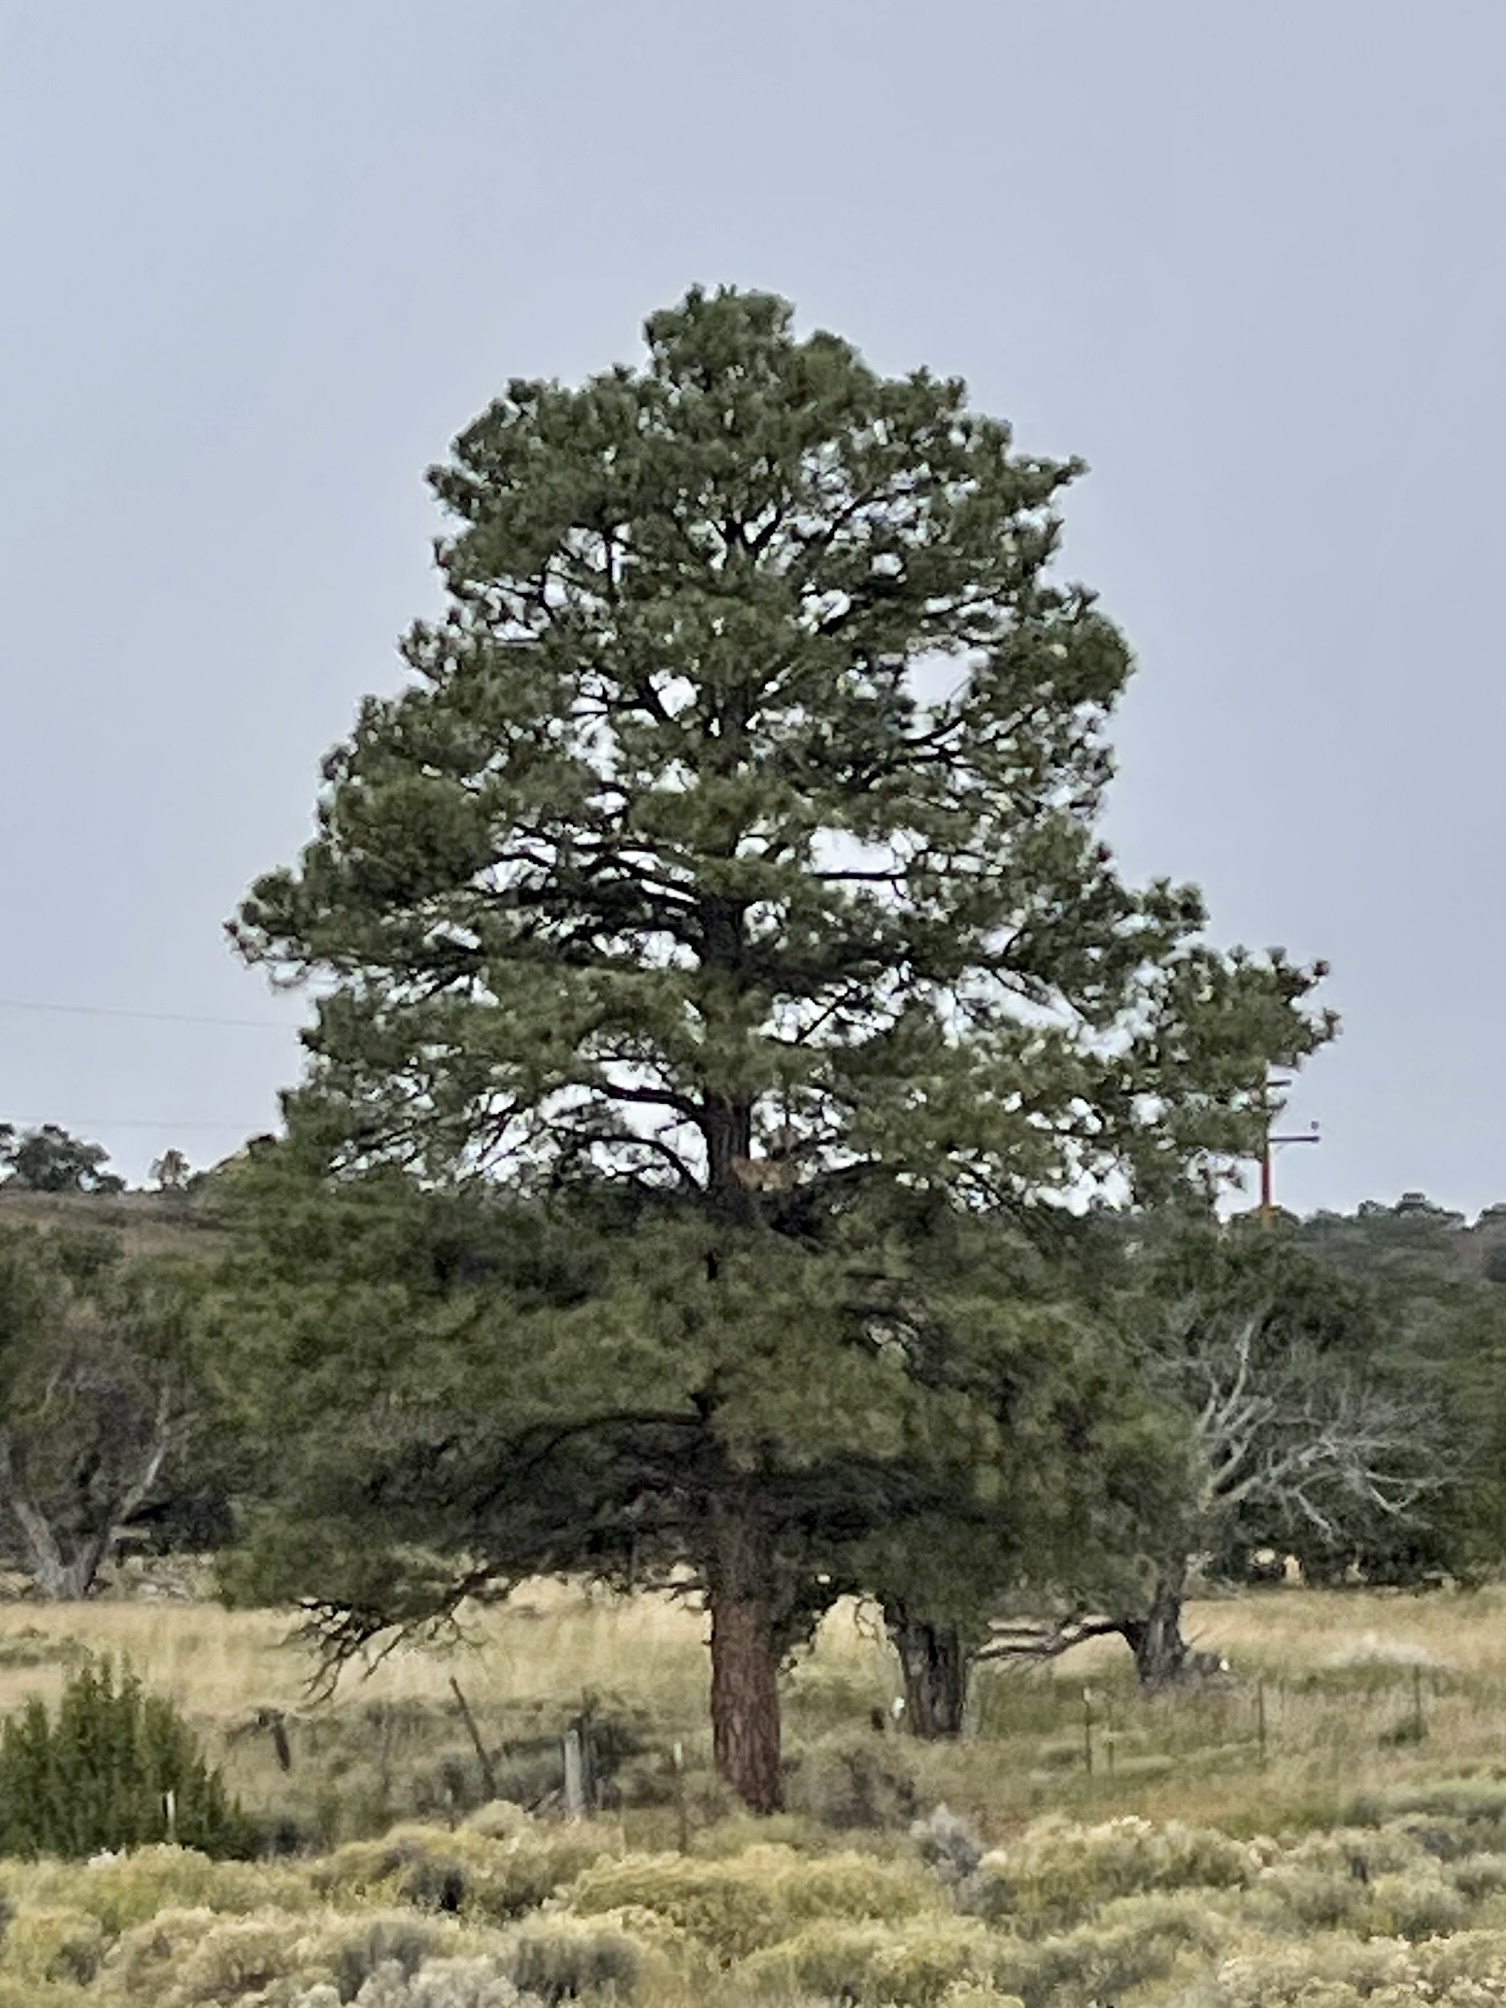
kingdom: Plantae
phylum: Tracheophyta
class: Pinopsida
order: Pinales
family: Pinaceae
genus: Pinus
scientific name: Pinus ponderosa
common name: Western yellow-pine
